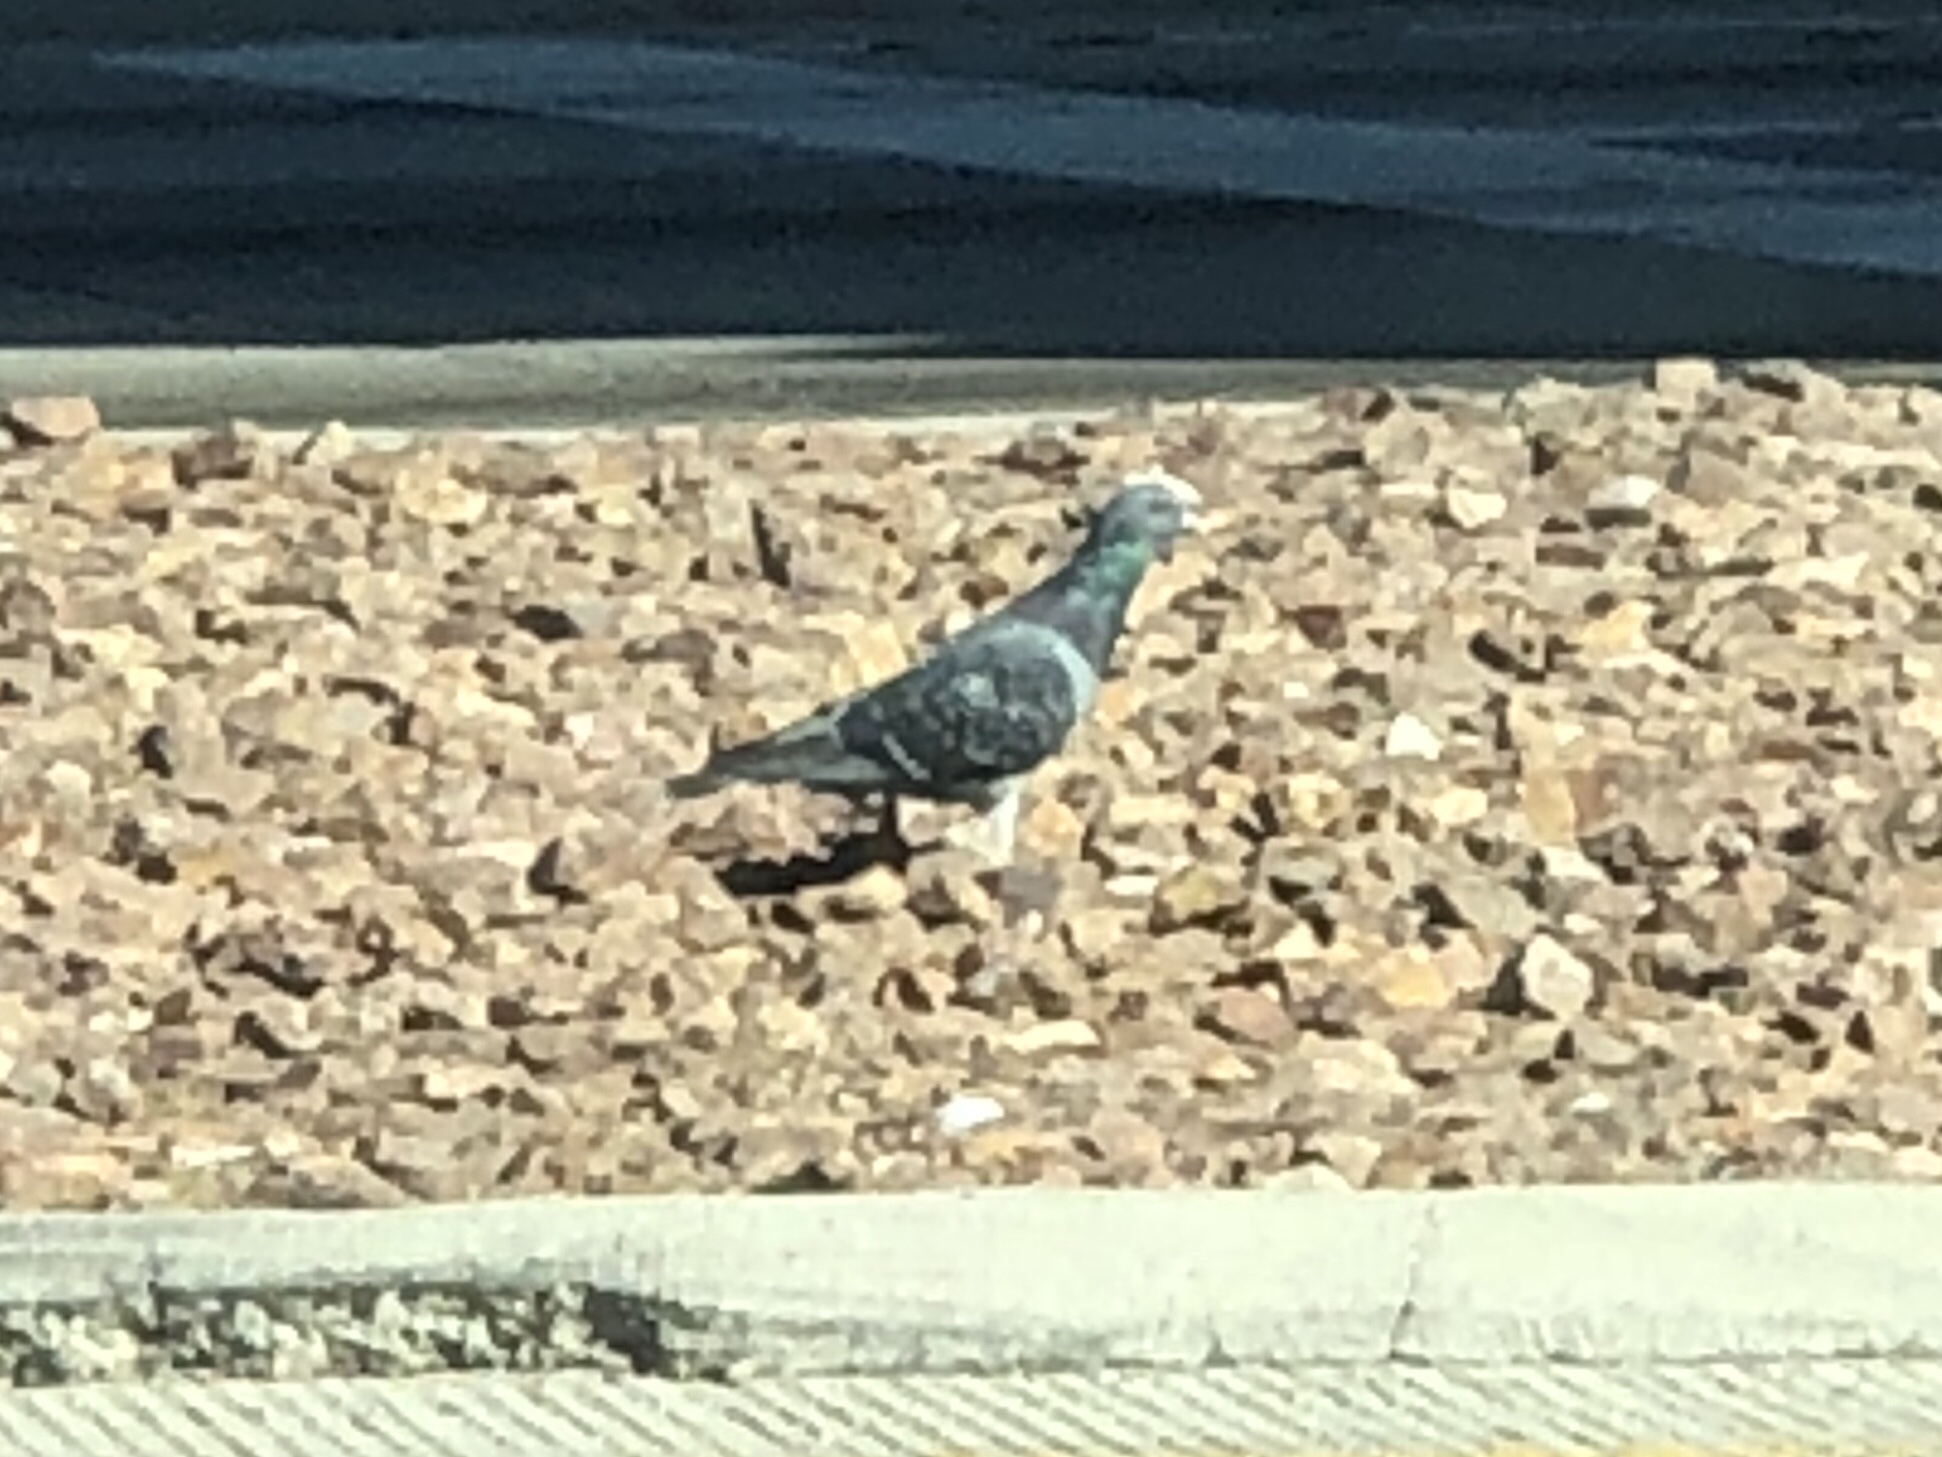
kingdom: Animalia
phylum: Chordata
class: Aves
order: Columbiformes
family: Columbidae
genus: Columba
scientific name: Columba livia
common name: Rock pigeon
